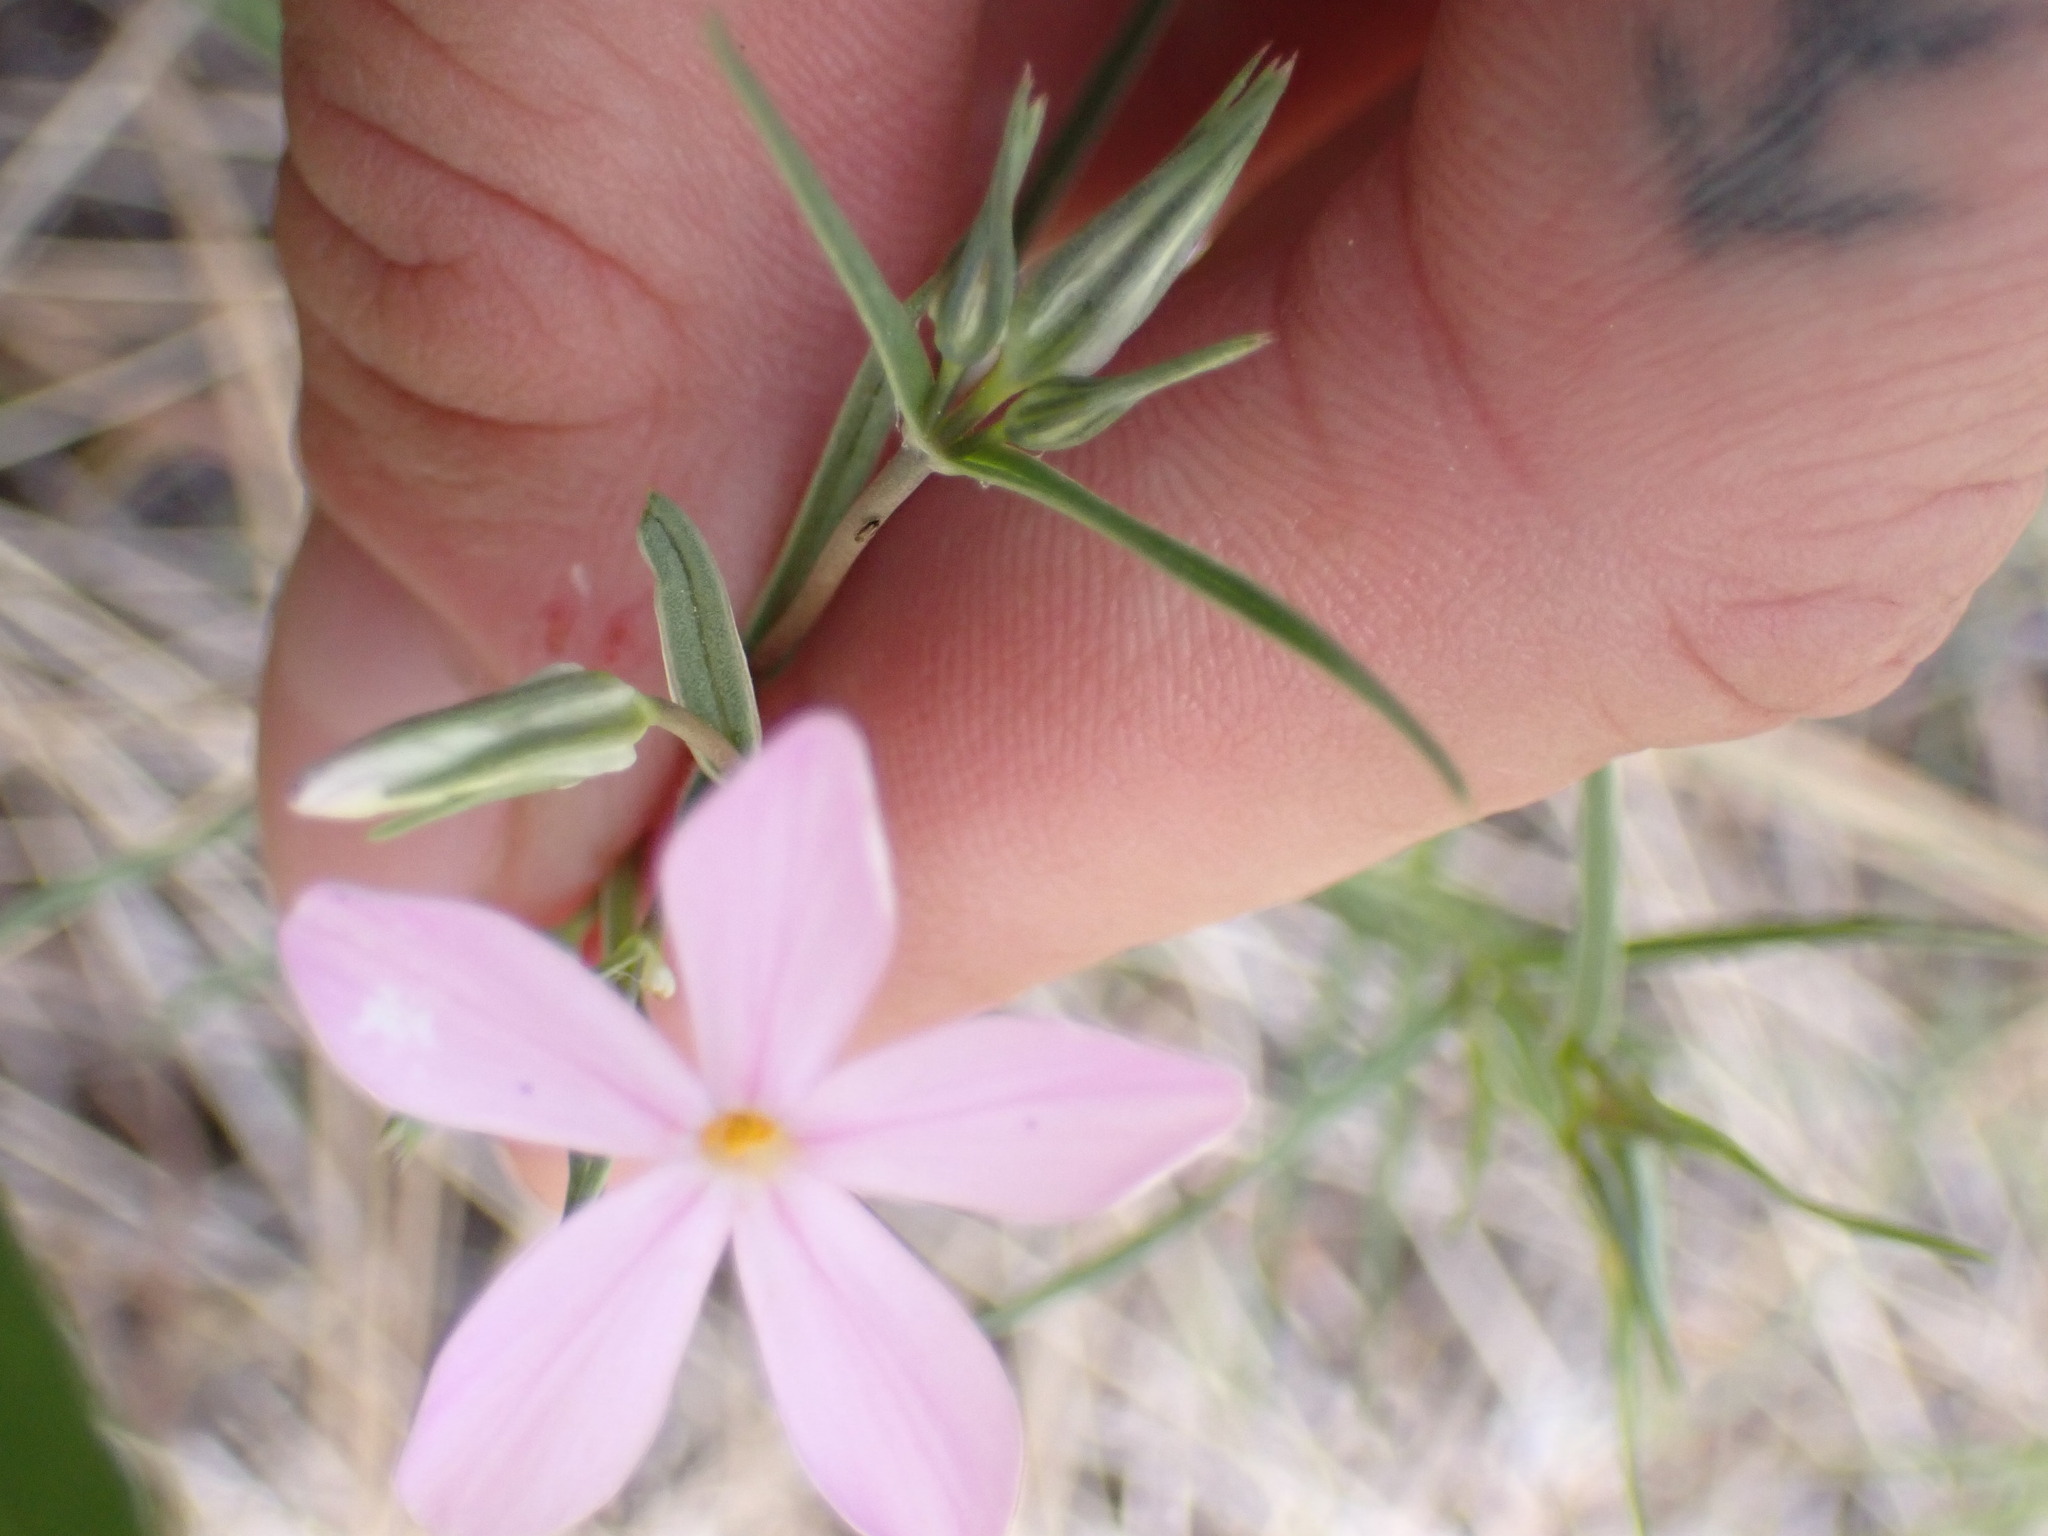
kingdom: Plantae
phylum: Tracheophyta
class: Magnoliopsida
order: Ericales
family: Polemoniaceae
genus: Phlox
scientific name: Phlox longifolia
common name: Longleaf phlox
